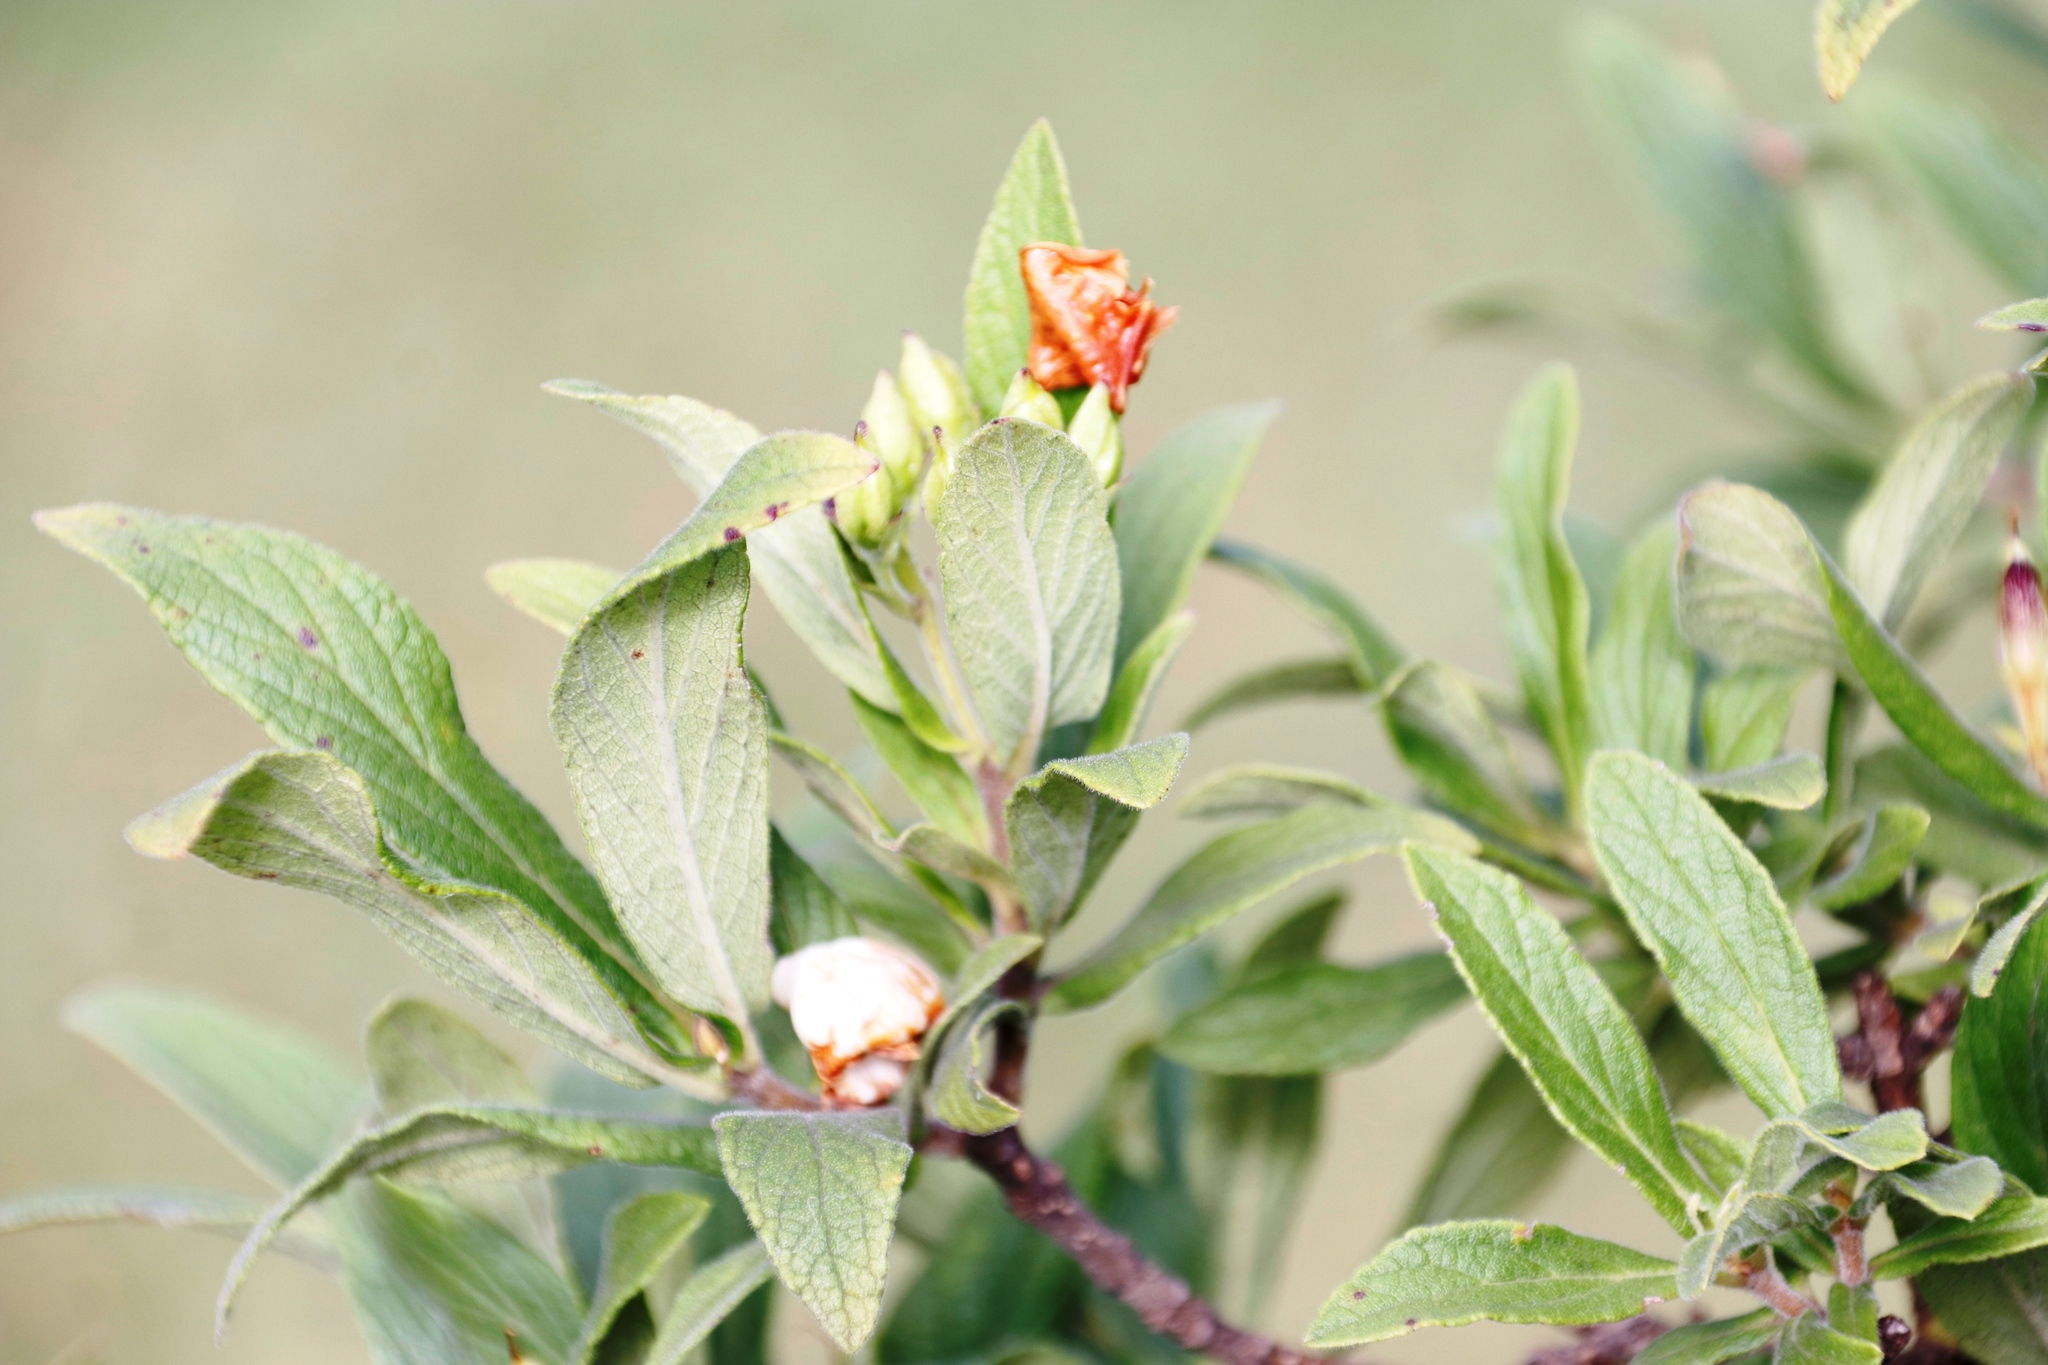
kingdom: Plantae
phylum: Tracheophyta
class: Magnoliopsida
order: Lamiales
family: Stilbaceae
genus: Bowkeria
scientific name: Bowkeria verticillata
